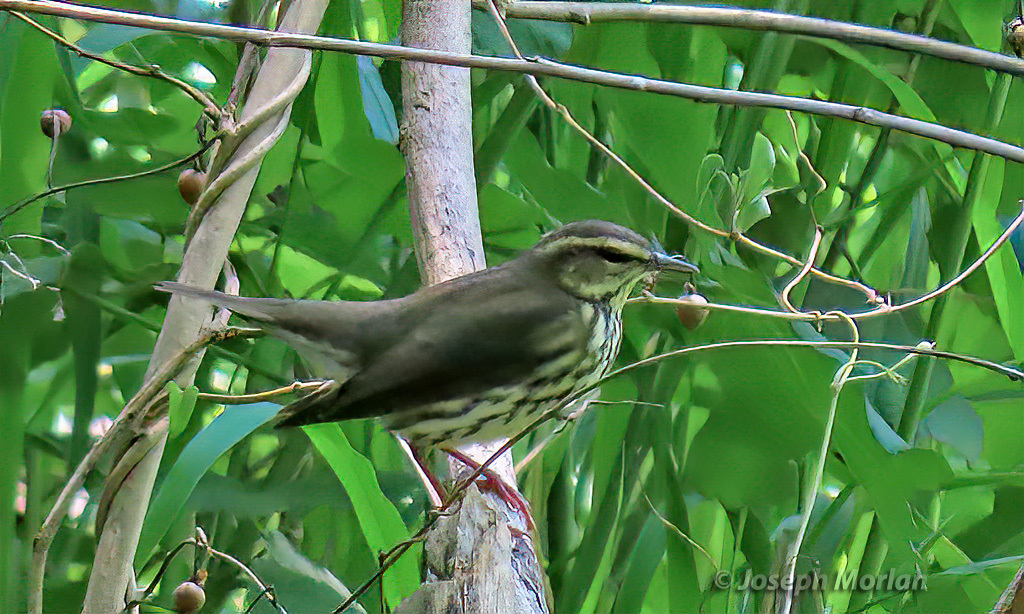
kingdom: Animalia
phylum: Chordata
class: Aves
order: Passeriformes
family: Parulidae
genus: Parkesia
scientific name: Parkesia noveboracensis
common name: Northern waterthrush
